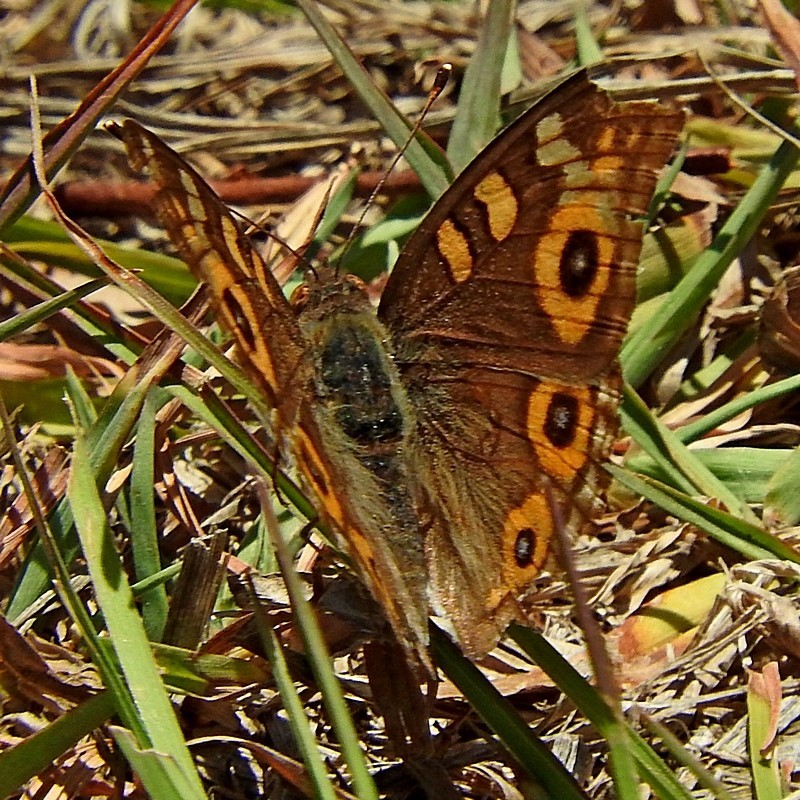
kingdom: Animalia
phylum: Arthropoda
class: Insecta
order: Lepidoptera
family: Nymphalidae
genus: Junonia
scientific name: Junonia villida
